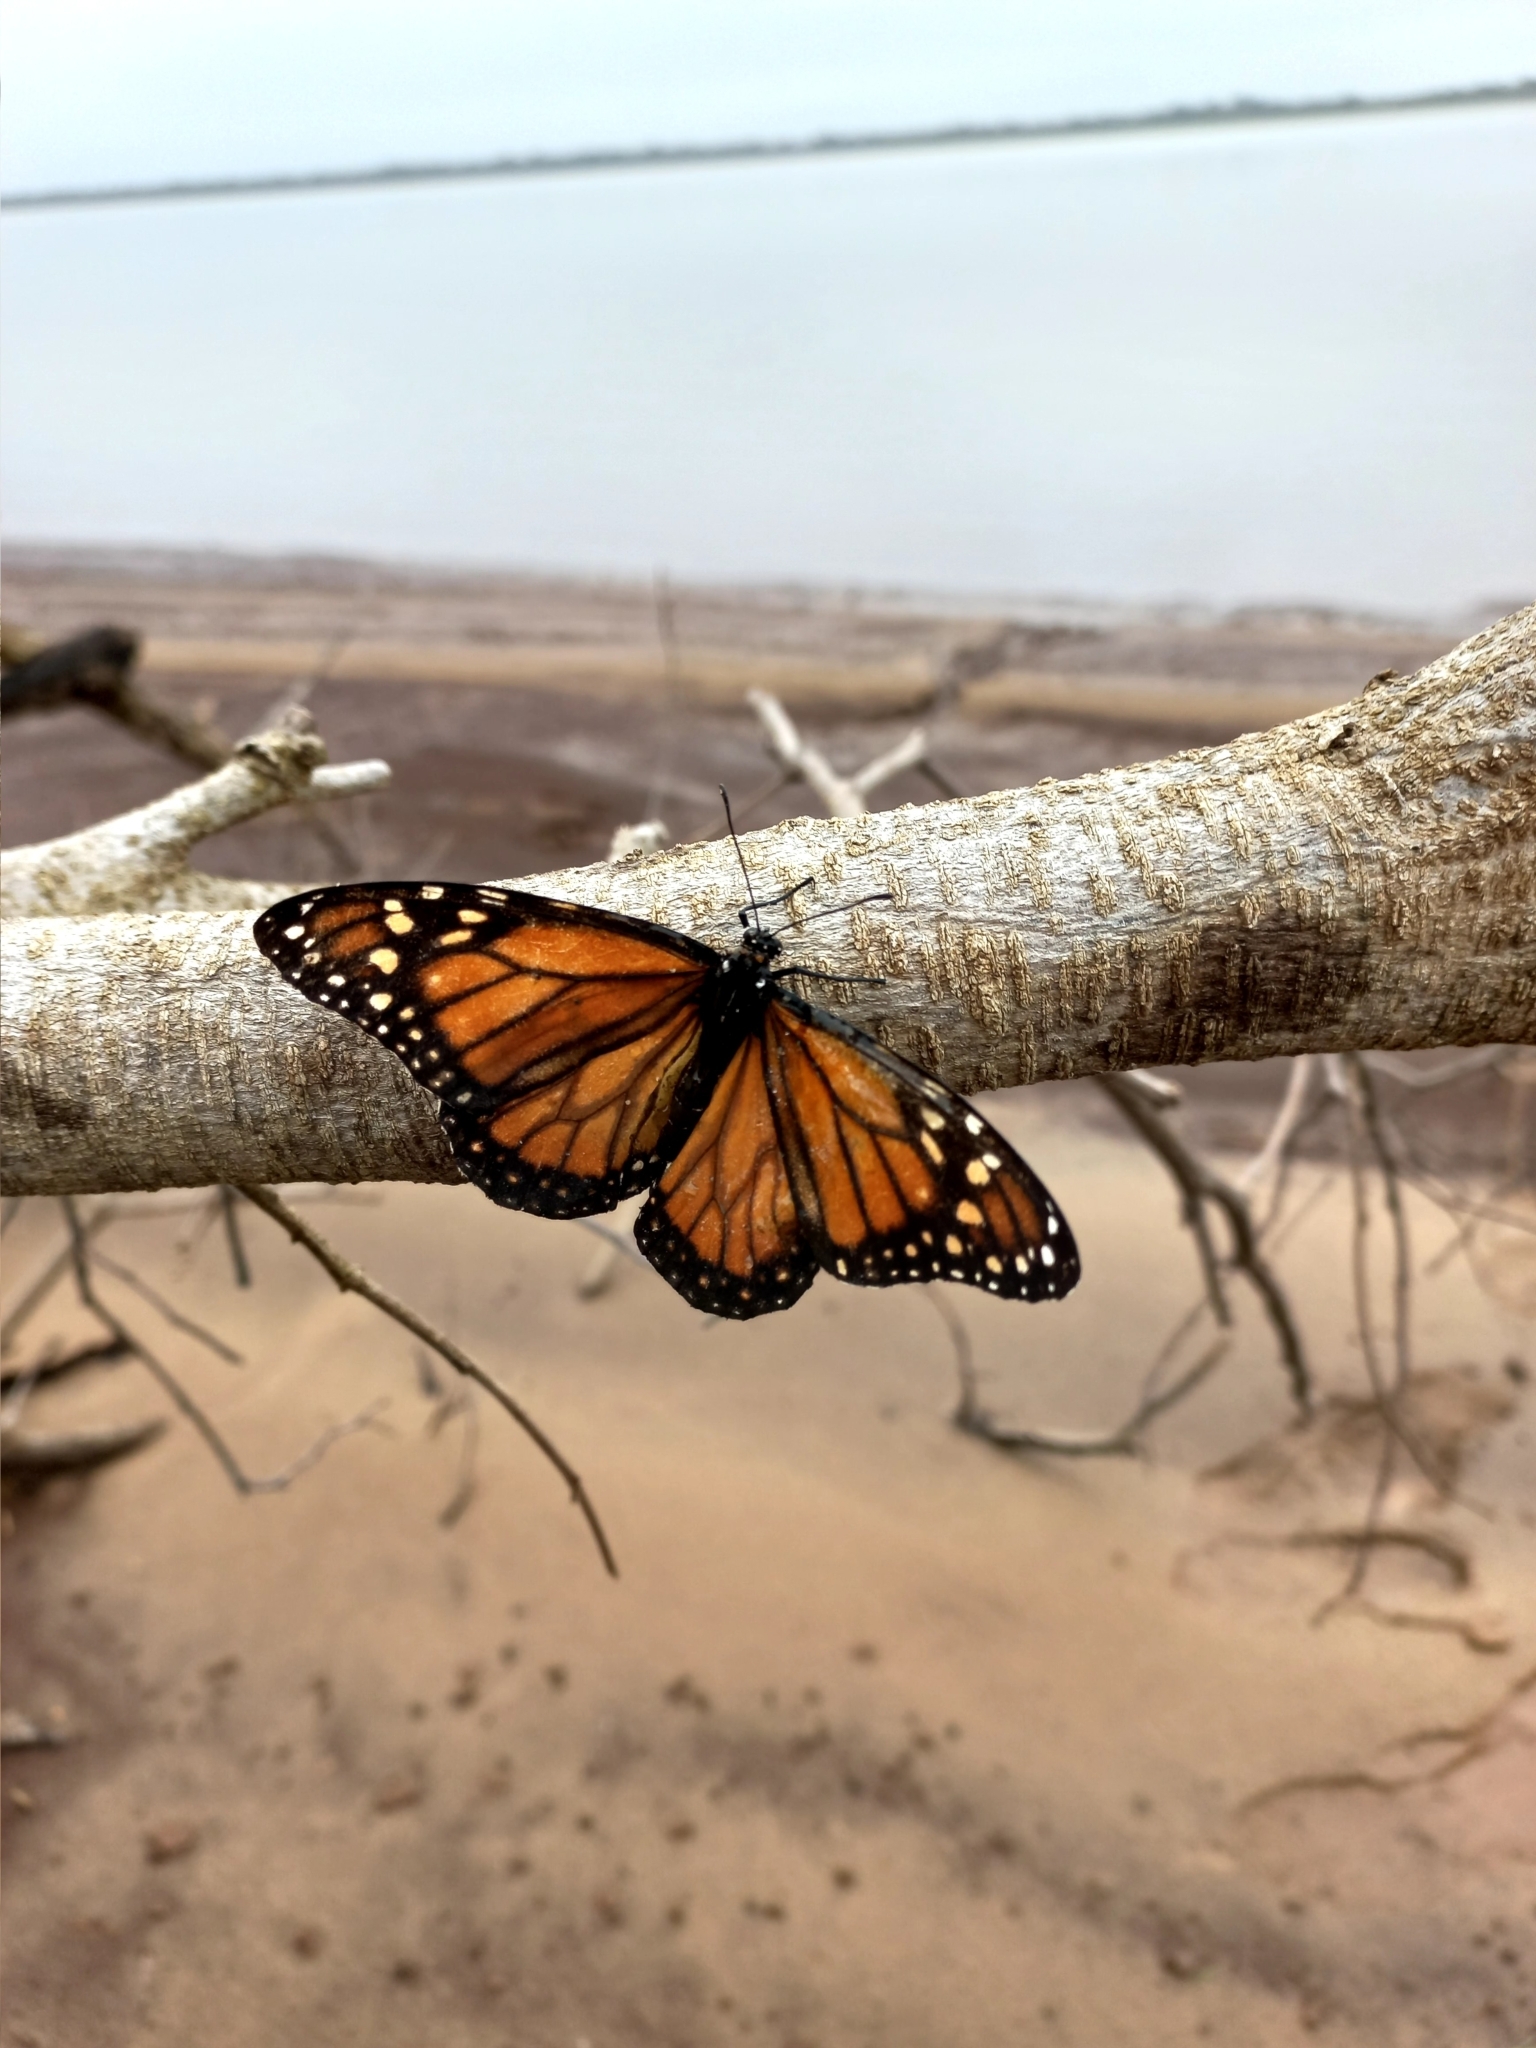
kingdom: Animalia
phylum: Arthropoda
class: Insecta
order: Lepidoptera
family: Nymphalidae
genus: Danaus
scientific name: Danaus erippus
